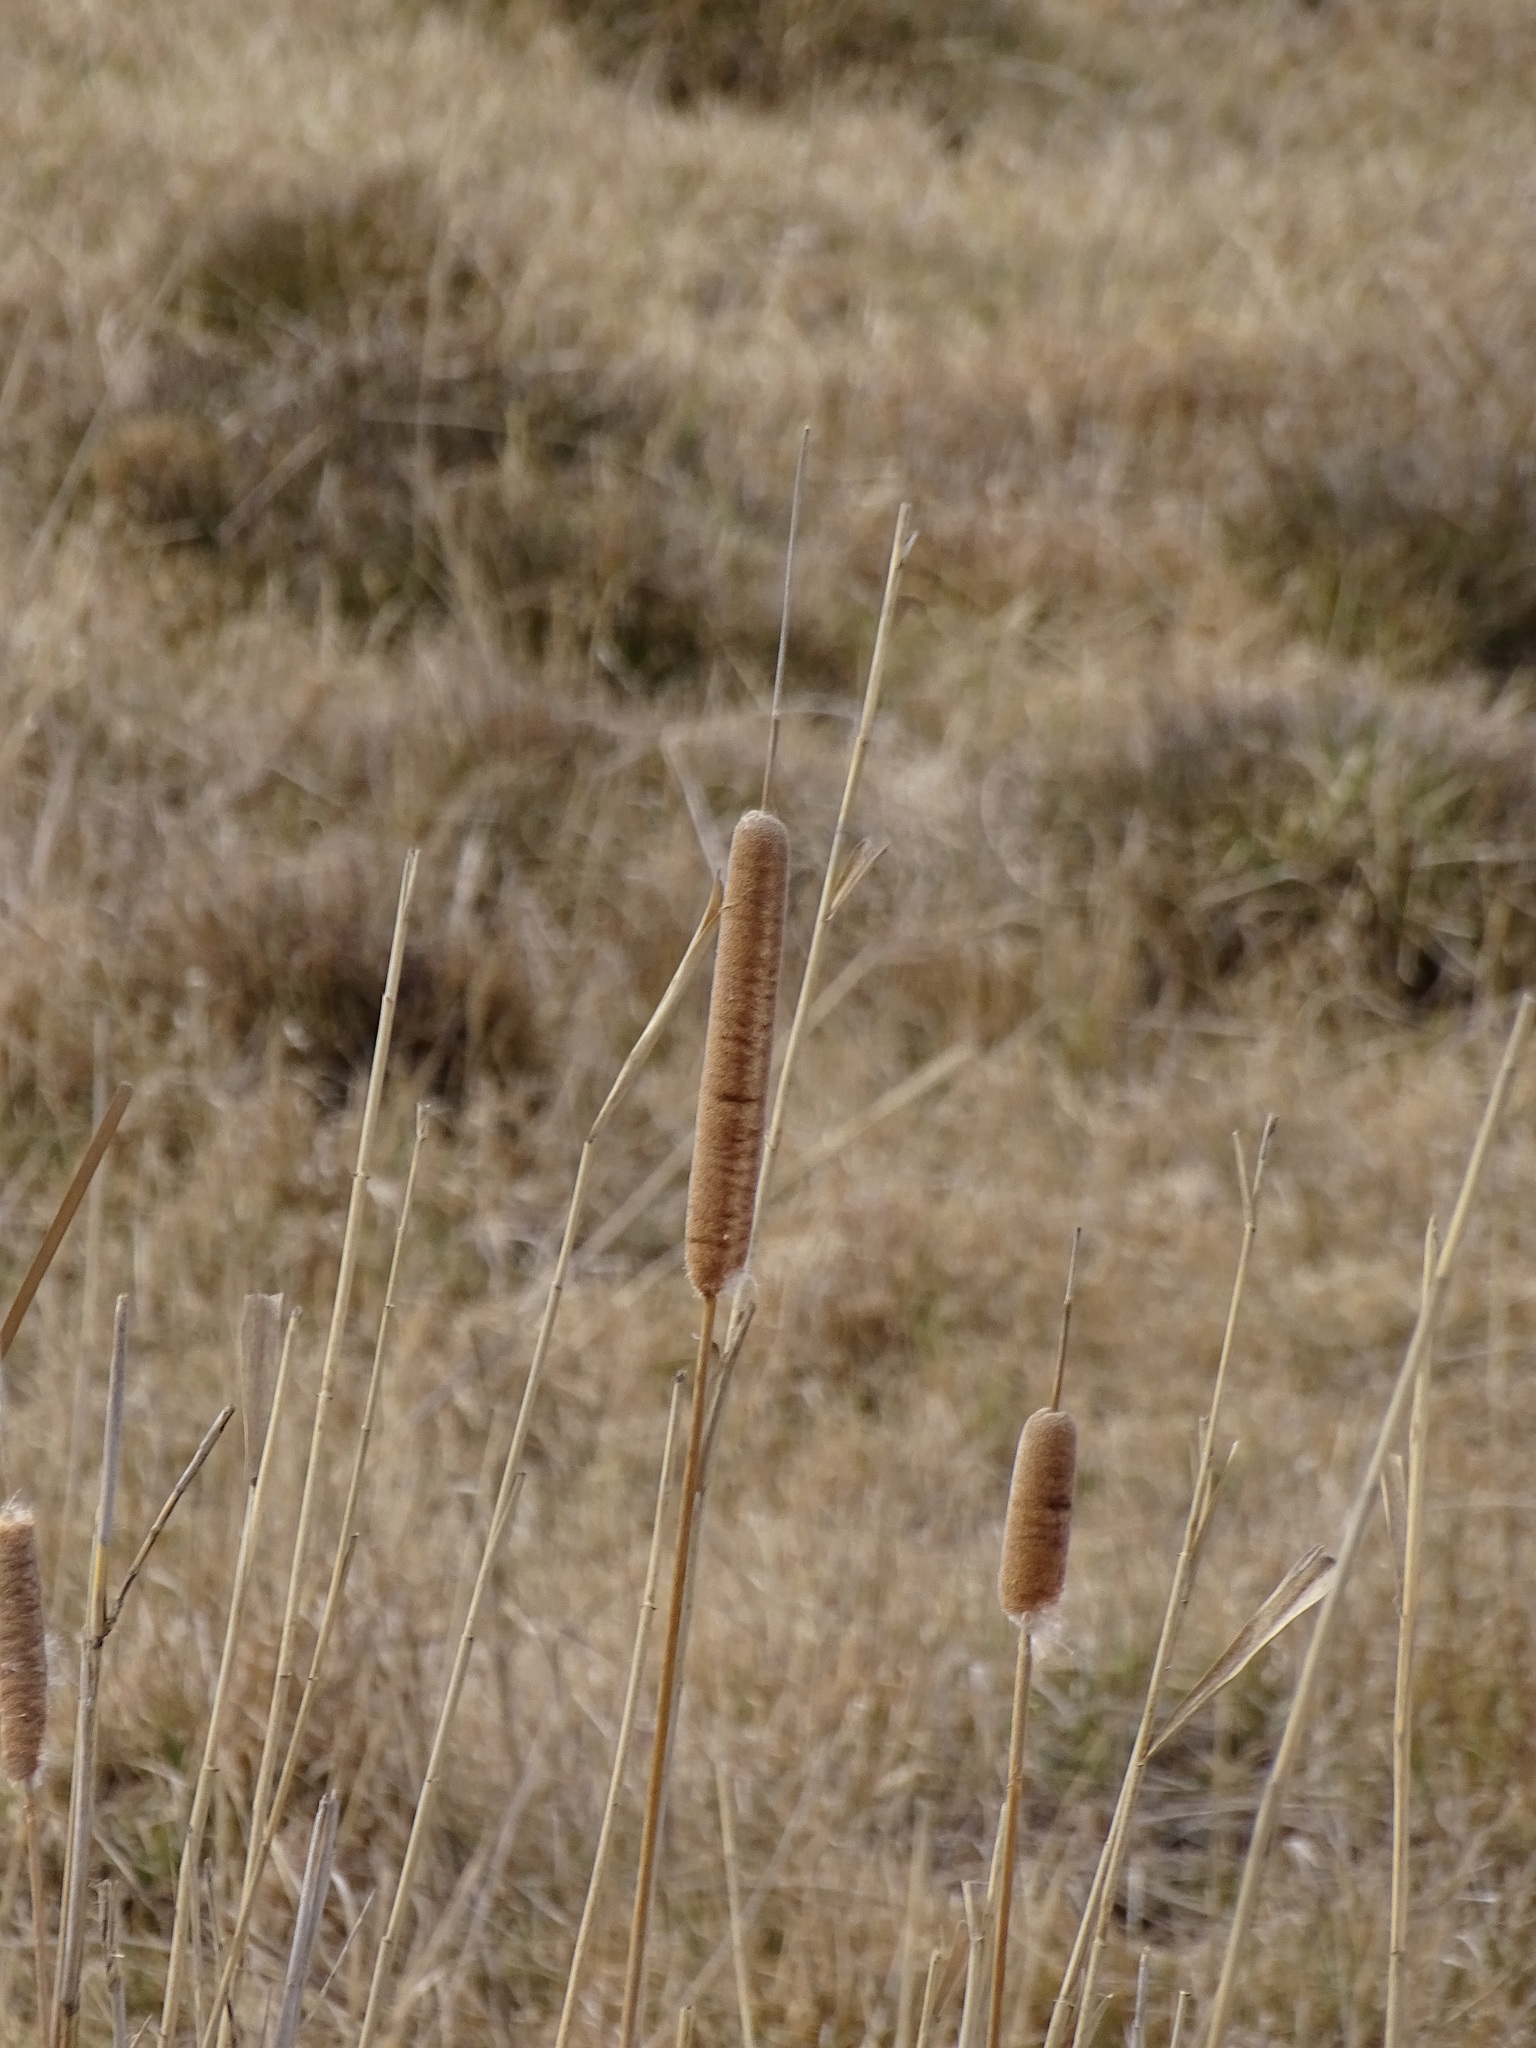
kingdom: Plantae
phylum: Tracheophyta
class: Liliopsida
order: Poales
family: Typhaceae
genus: Typha
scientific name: Typha angustifolia
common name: Lesser bulrush
